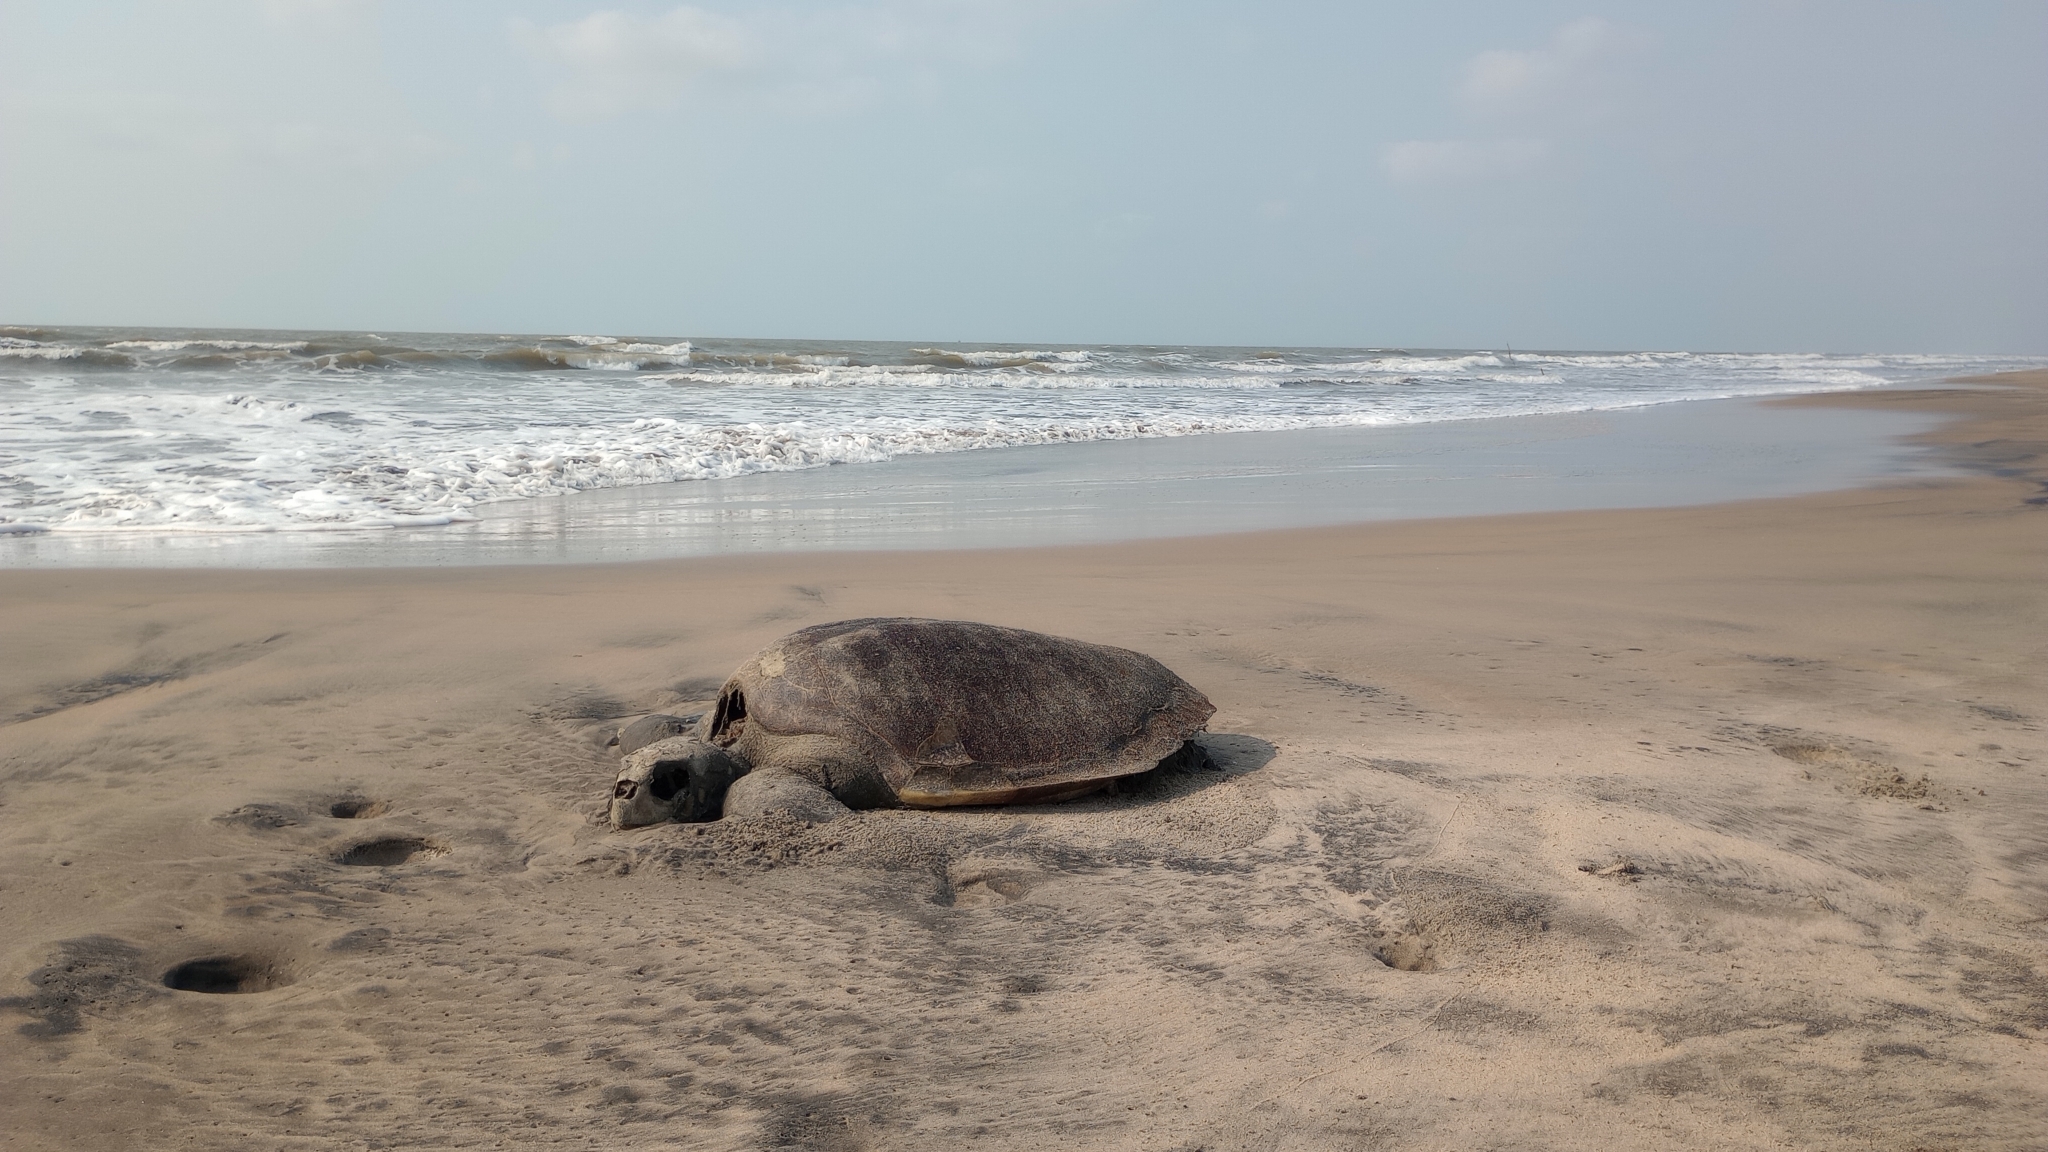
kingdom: Animalia
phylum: Chordata
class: Testudines
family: Cheloniidae
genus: Lepidochelys
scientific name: Lepidochelys olivacea
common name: Olive ridley
